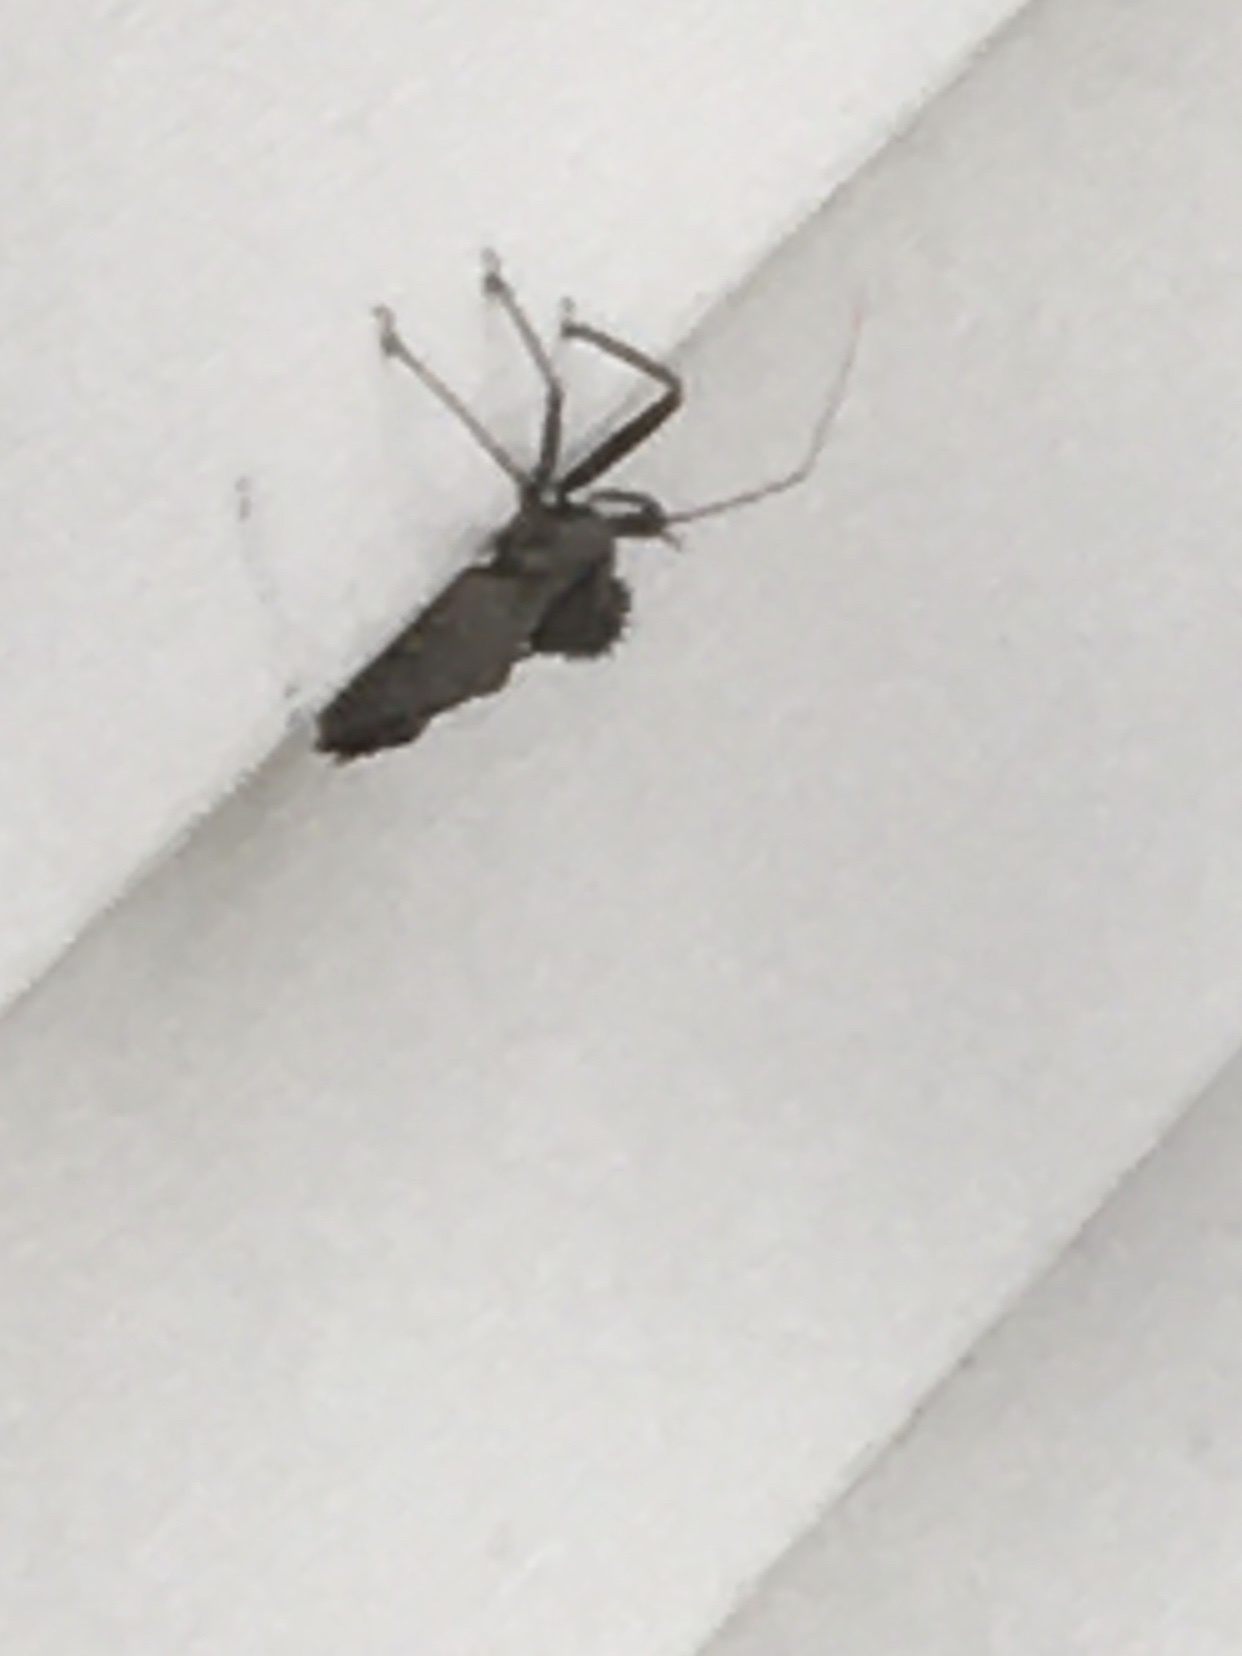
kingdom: Animalia
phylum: Arthropoda
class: Insecta
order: Hemiptera
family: Reduviidae
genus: Arilus
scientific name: Arilus cristatus
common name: North american wheel bug
